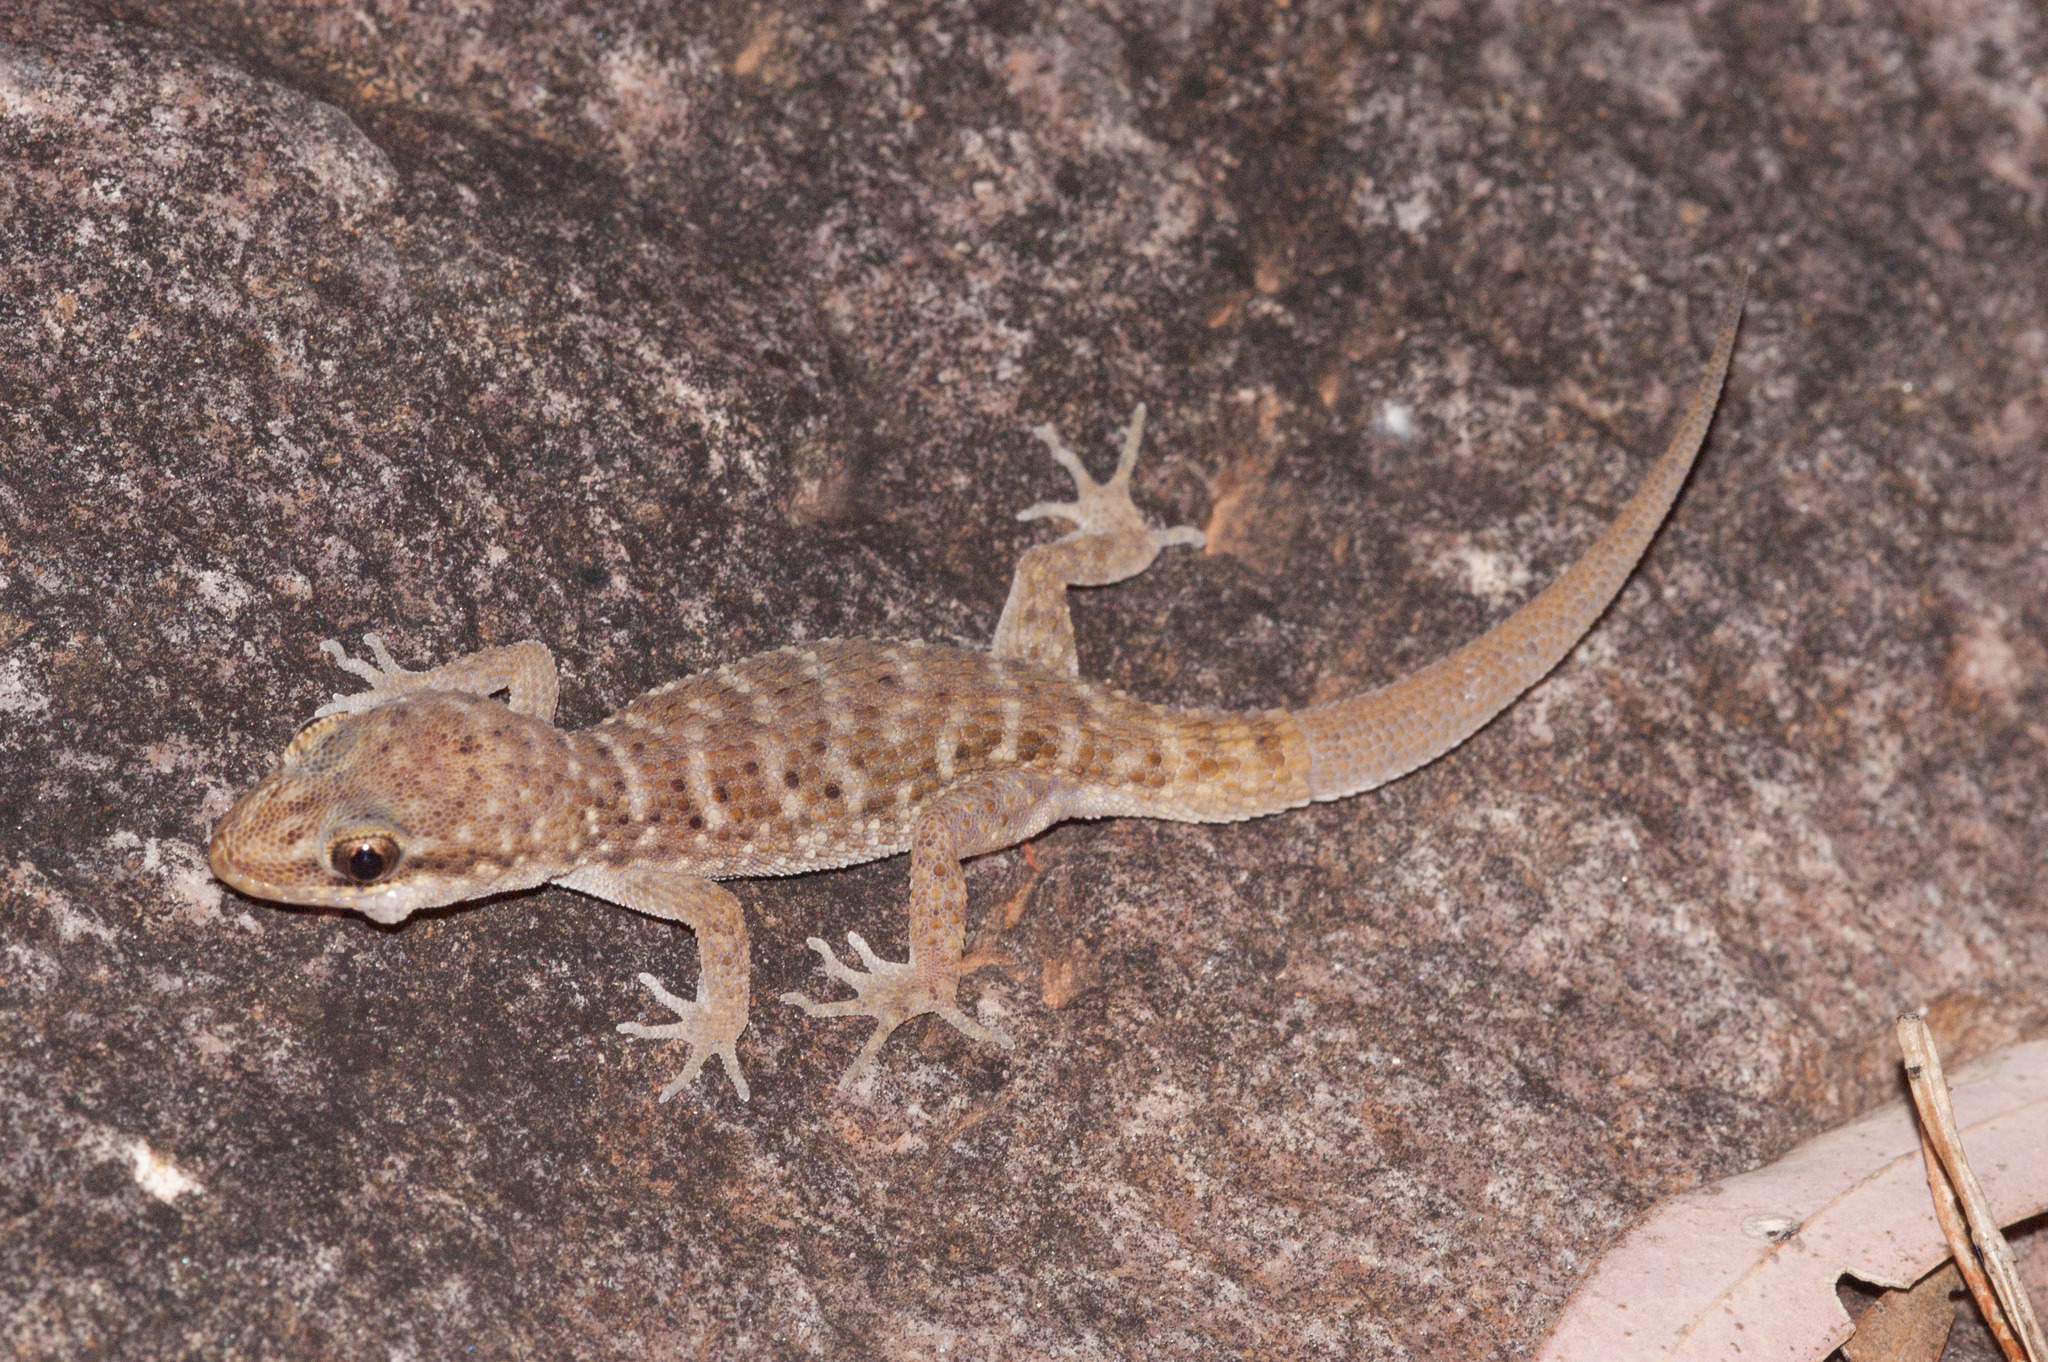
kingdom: Animalia
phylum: Chordata
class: Squamata
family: Gekkonidae
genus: Heteronotia
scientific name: Heteronotia binoei
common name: Bynoe's gecko
